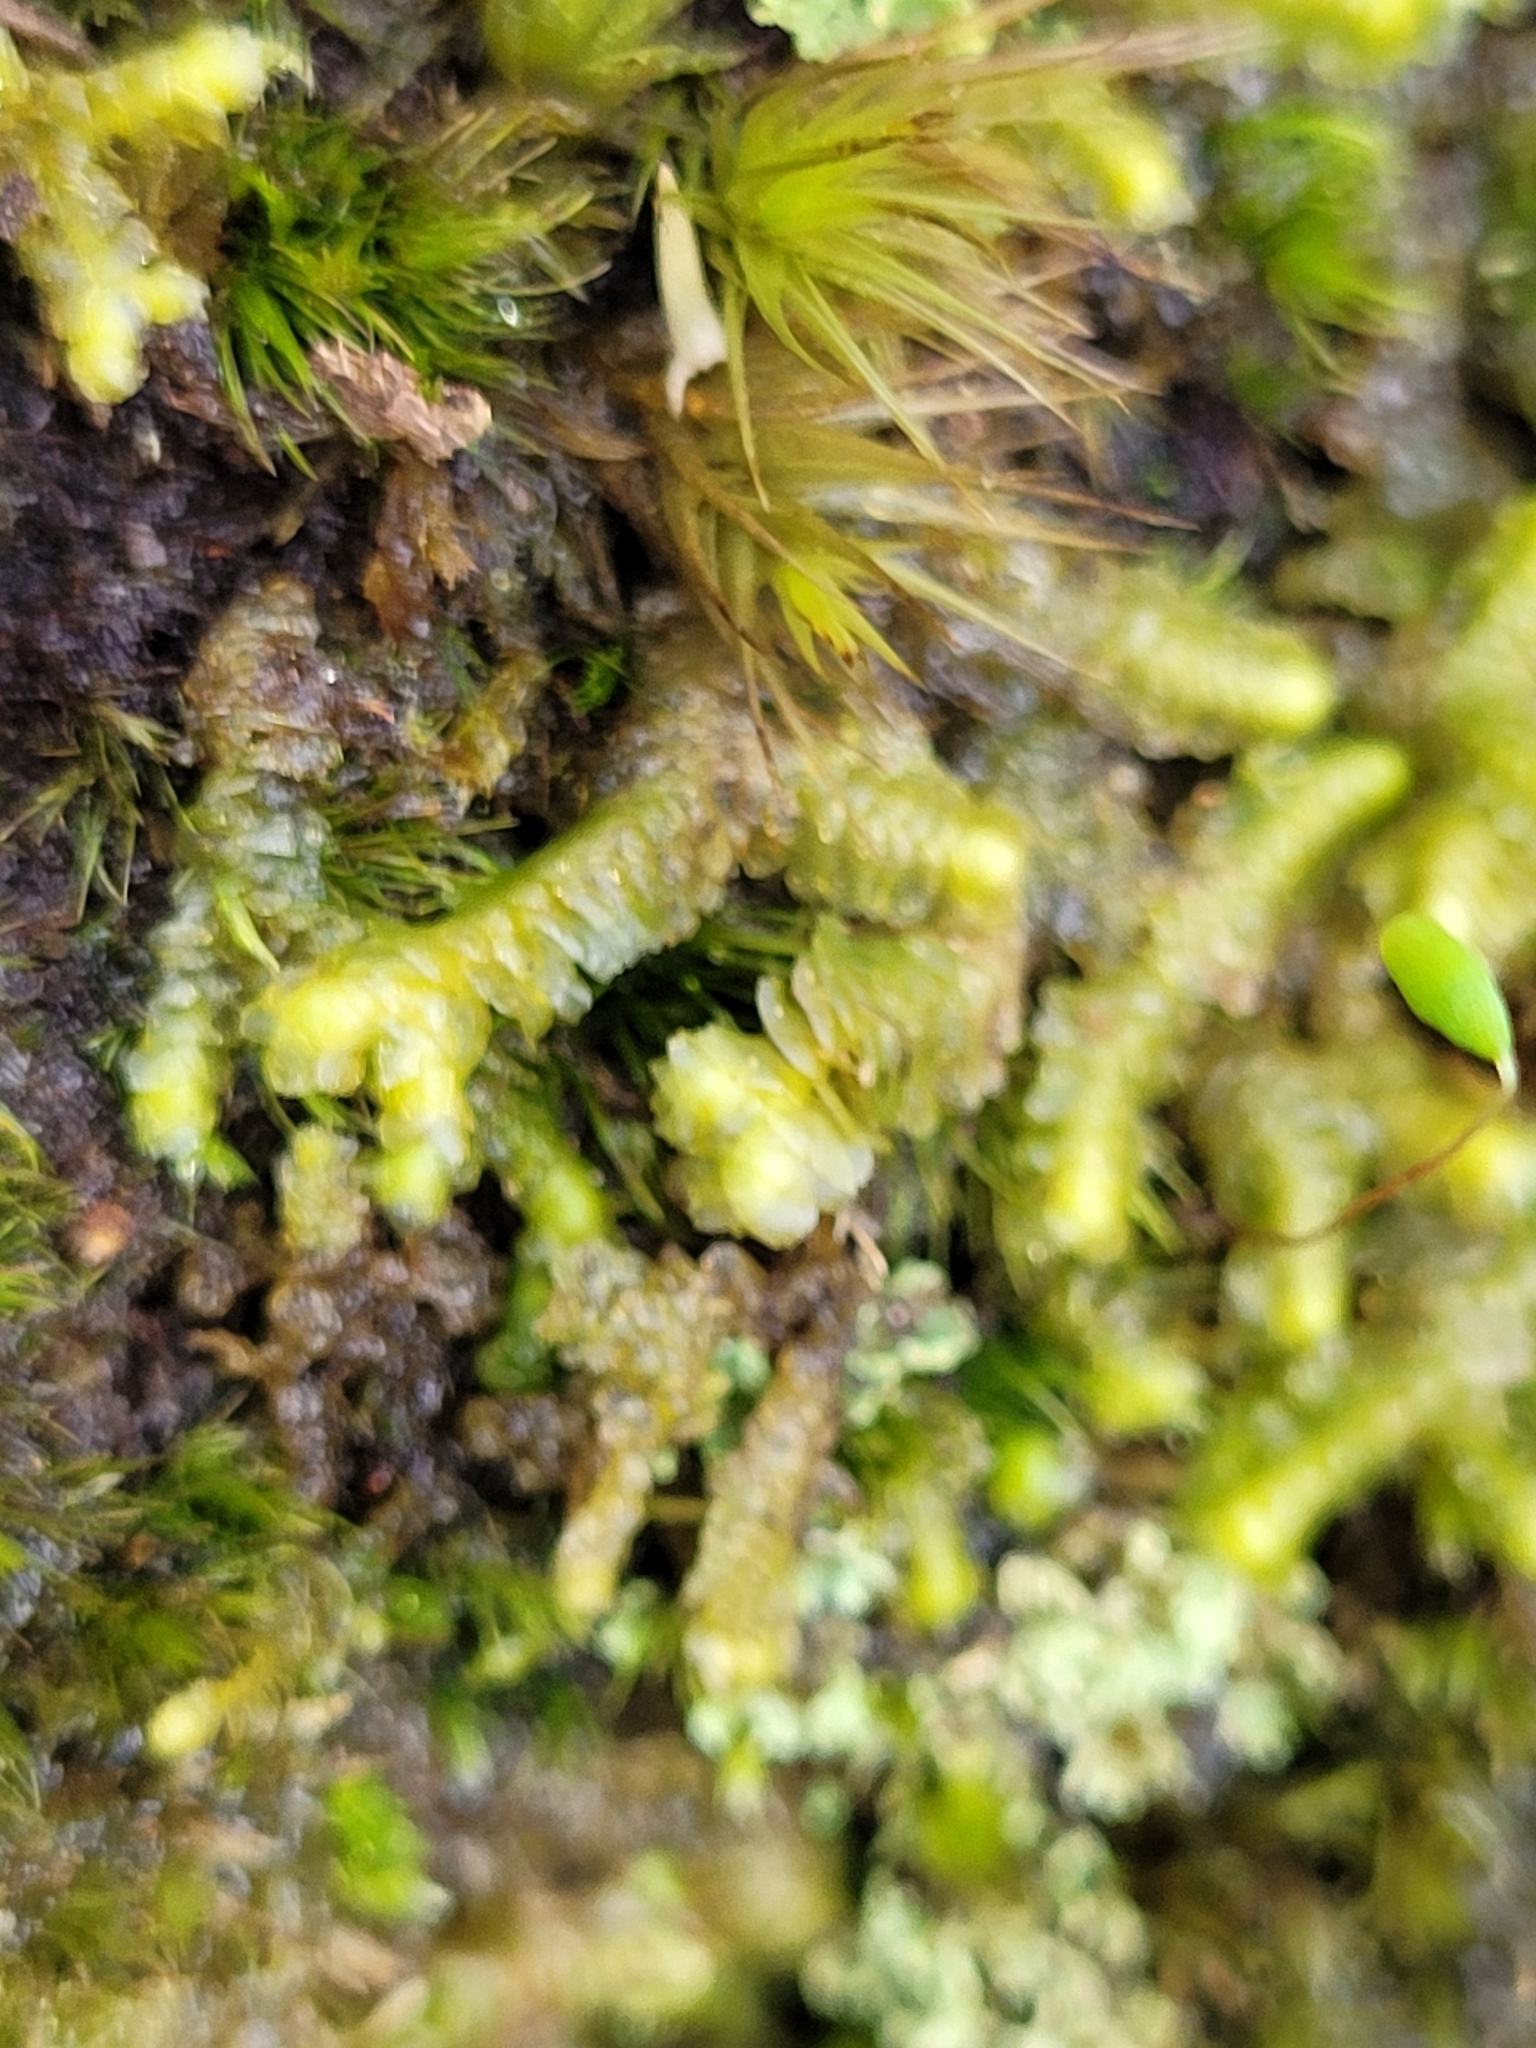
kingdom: Plantae
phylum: Marchantiophyta
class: Jungermanniopsida
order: Jungermanniales
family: Lepidoziaceae
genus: Bazzania
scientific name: Bazzania trilobata
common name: Three-lobed whipwort
